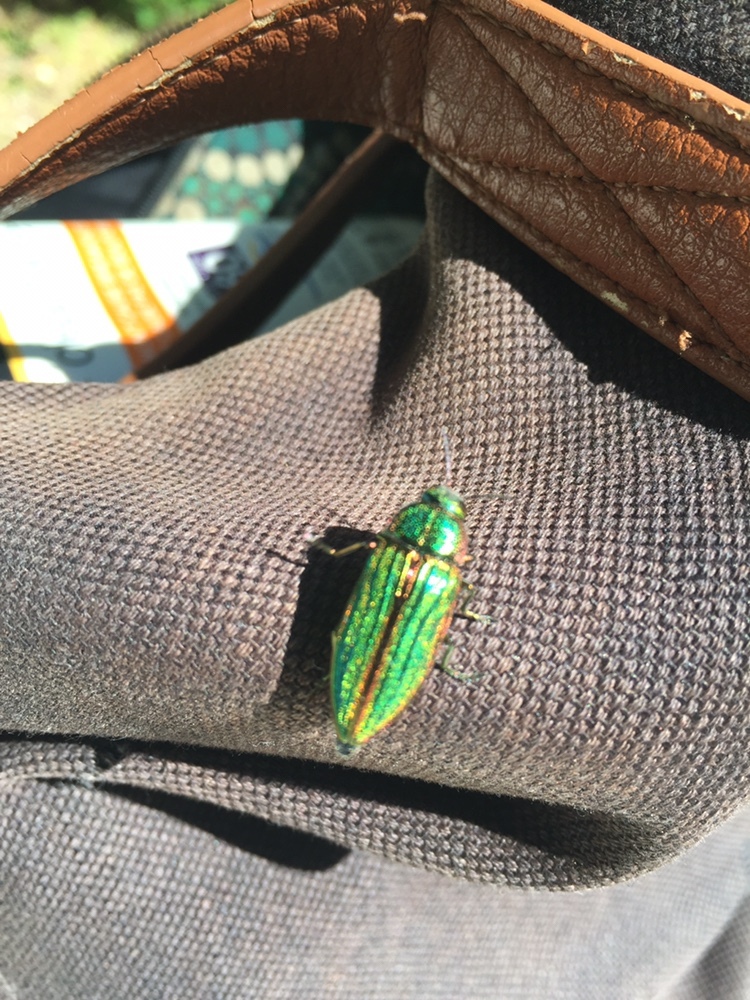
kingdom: Animalia
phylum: Arthropoda
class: Insecta
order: Coleoptera
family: Buprestidae
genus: Buprestis
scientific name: Buprestis aurulenta
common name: Golden buprestid
